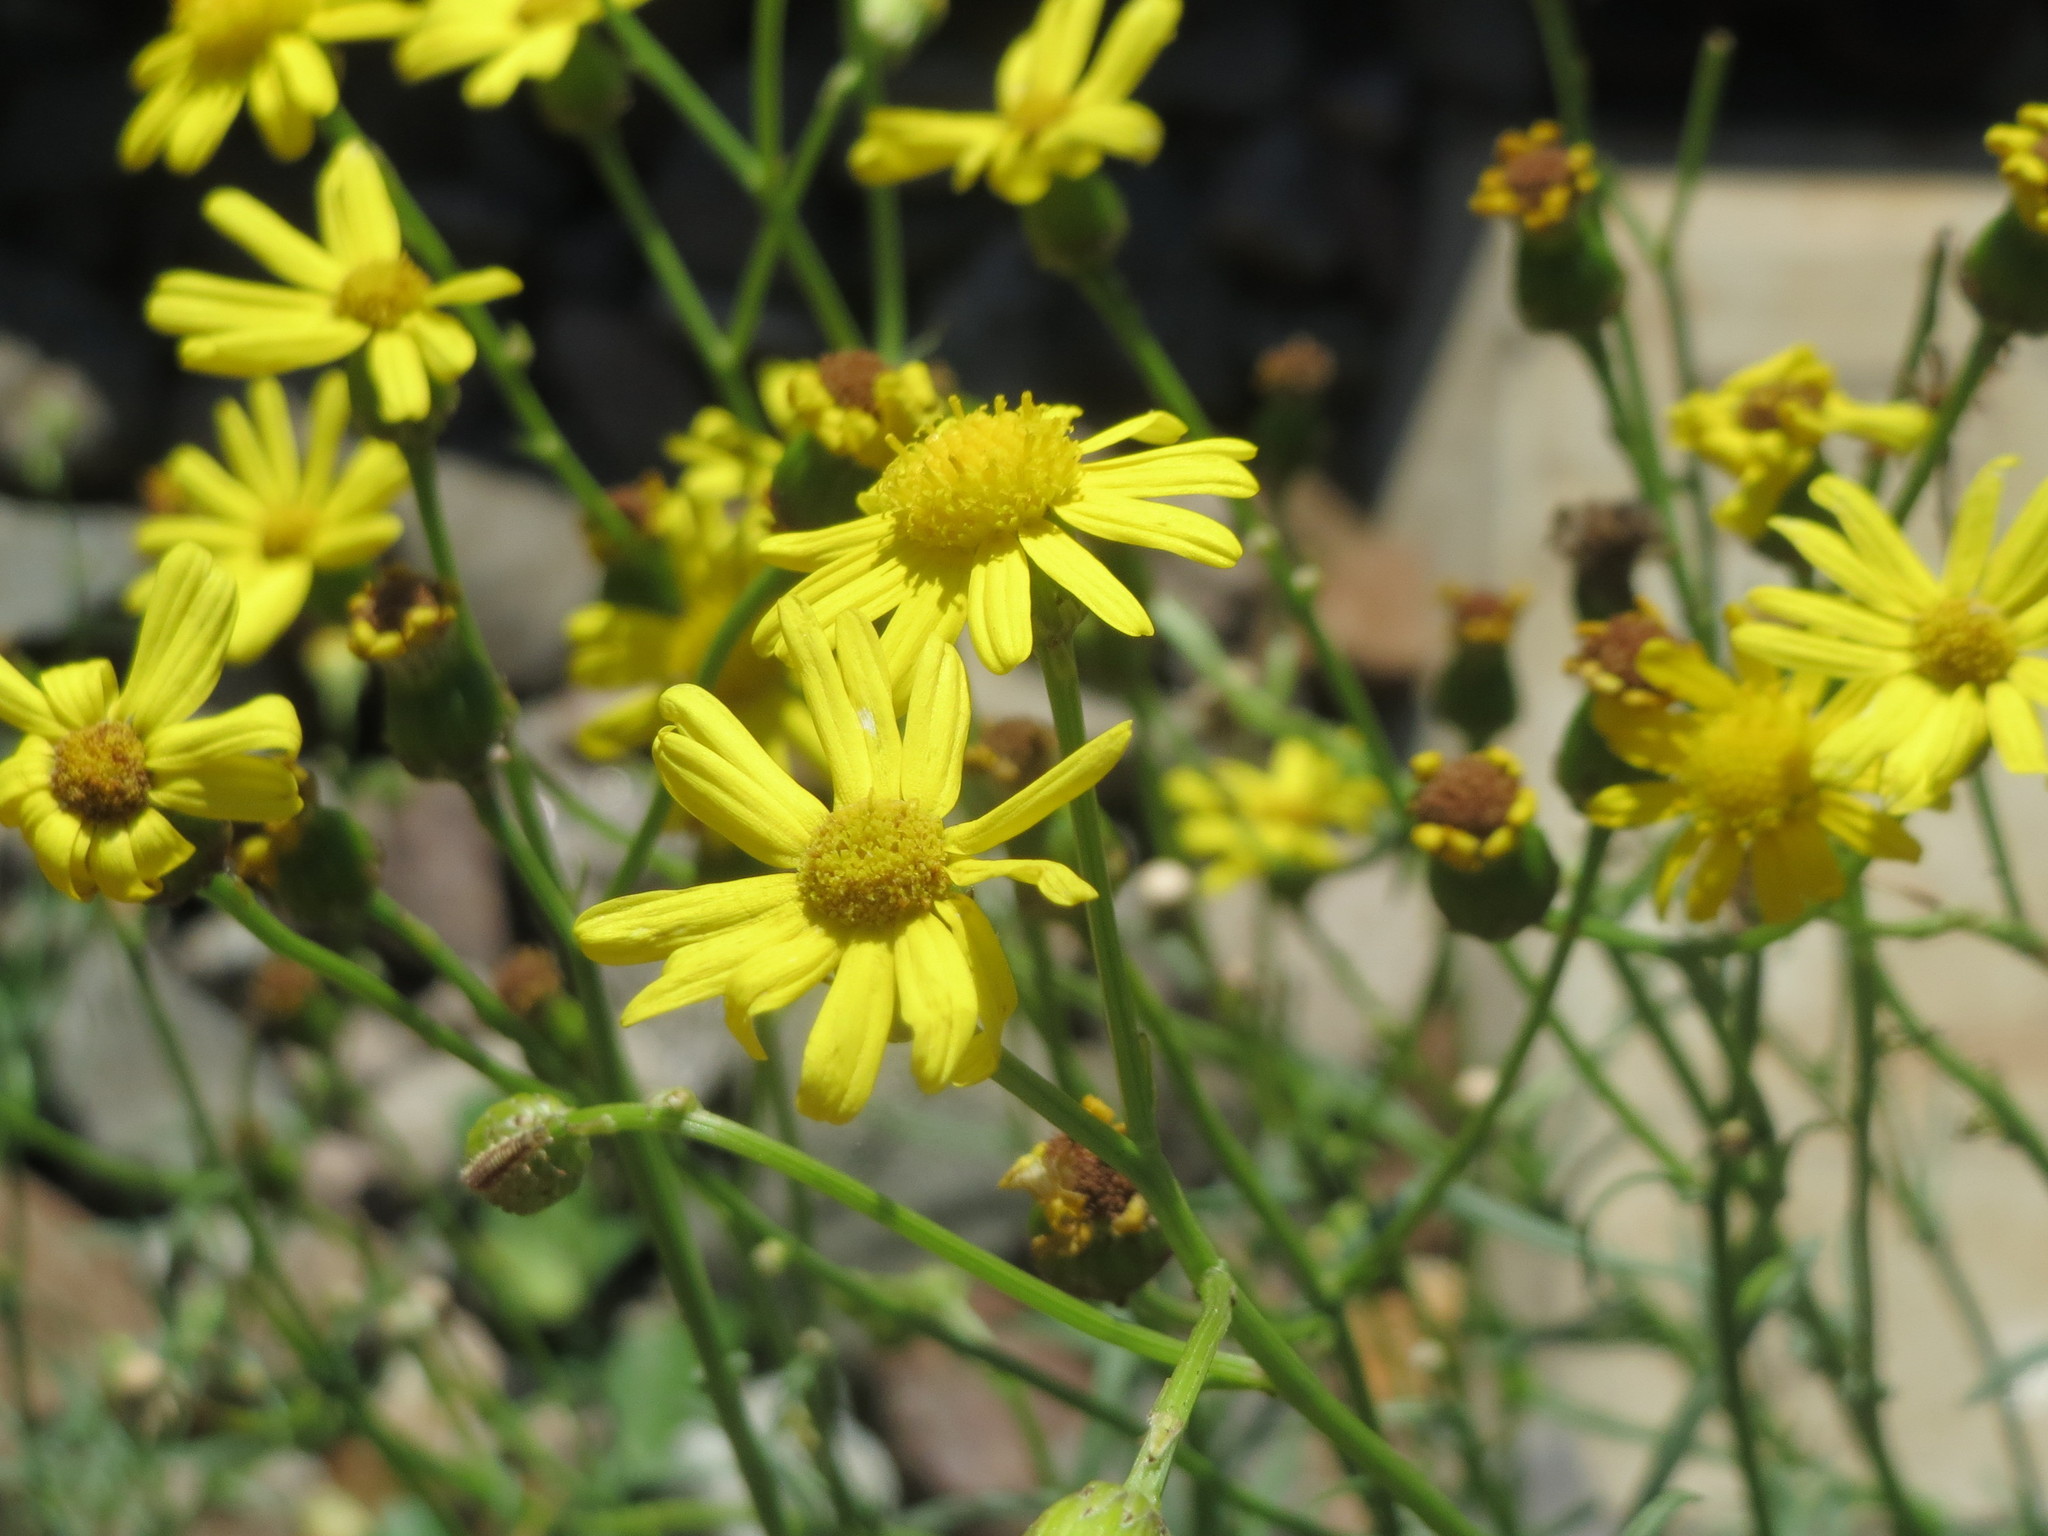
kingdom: Plantae
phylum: Tracheophyta
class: Magnoliopsida
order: Asterales
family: Asteraceae
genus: Senecio
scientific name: Senecio inaequidens
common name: Narrow-leaved ragwort
